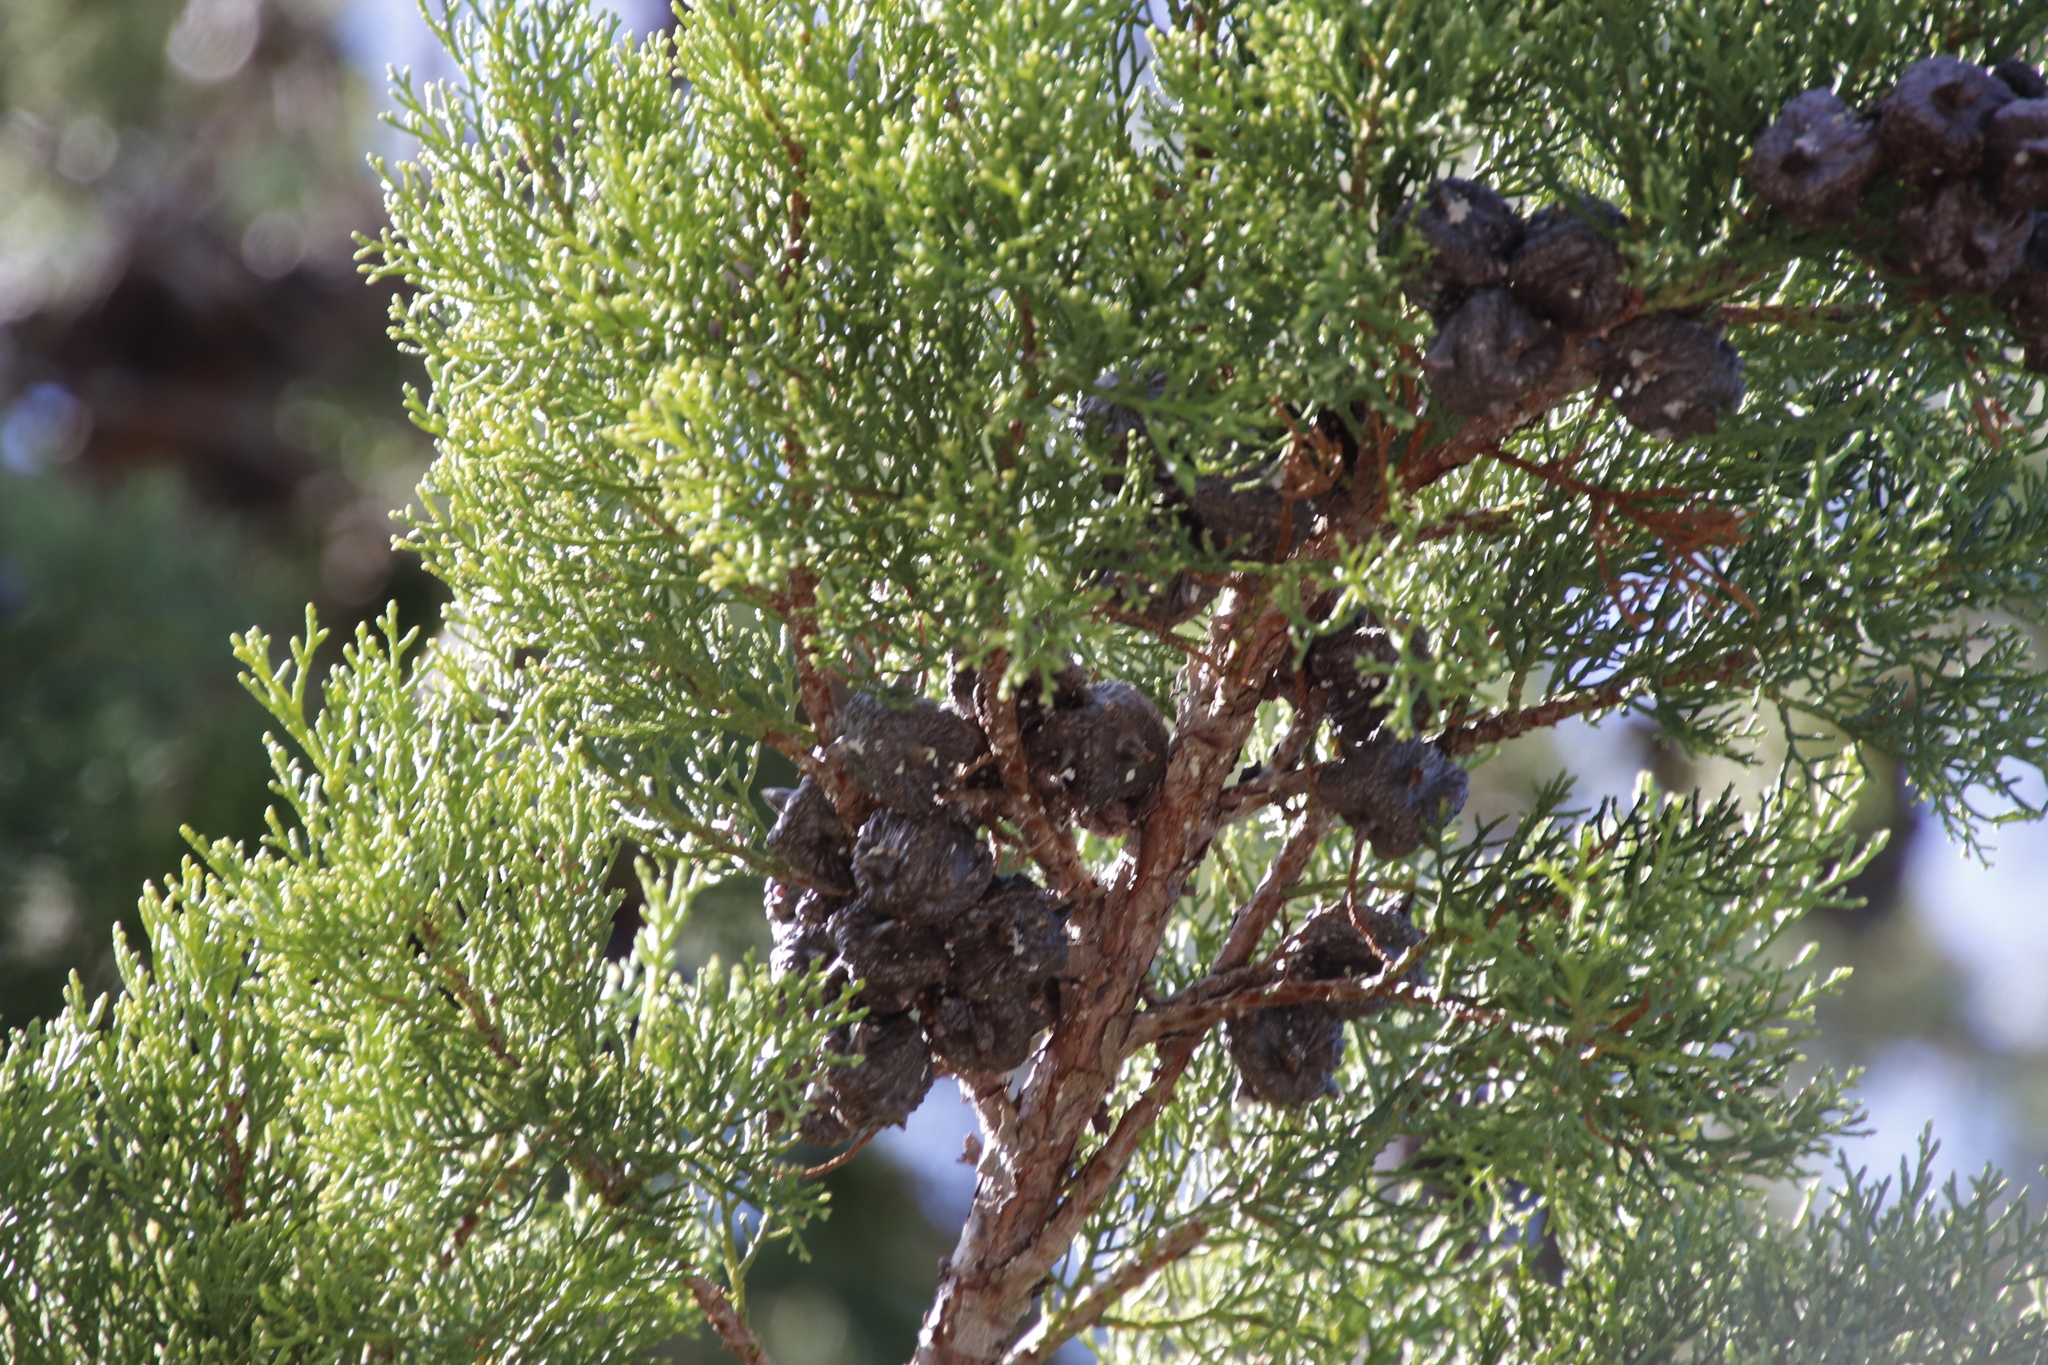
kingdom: Plantae
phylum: Tracheophyta
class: Pinopsida
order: Pinales
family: Cupressaceae
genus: Widdringtonia
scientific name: Widdringtonia schwarzii
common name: Baviaans cedar
